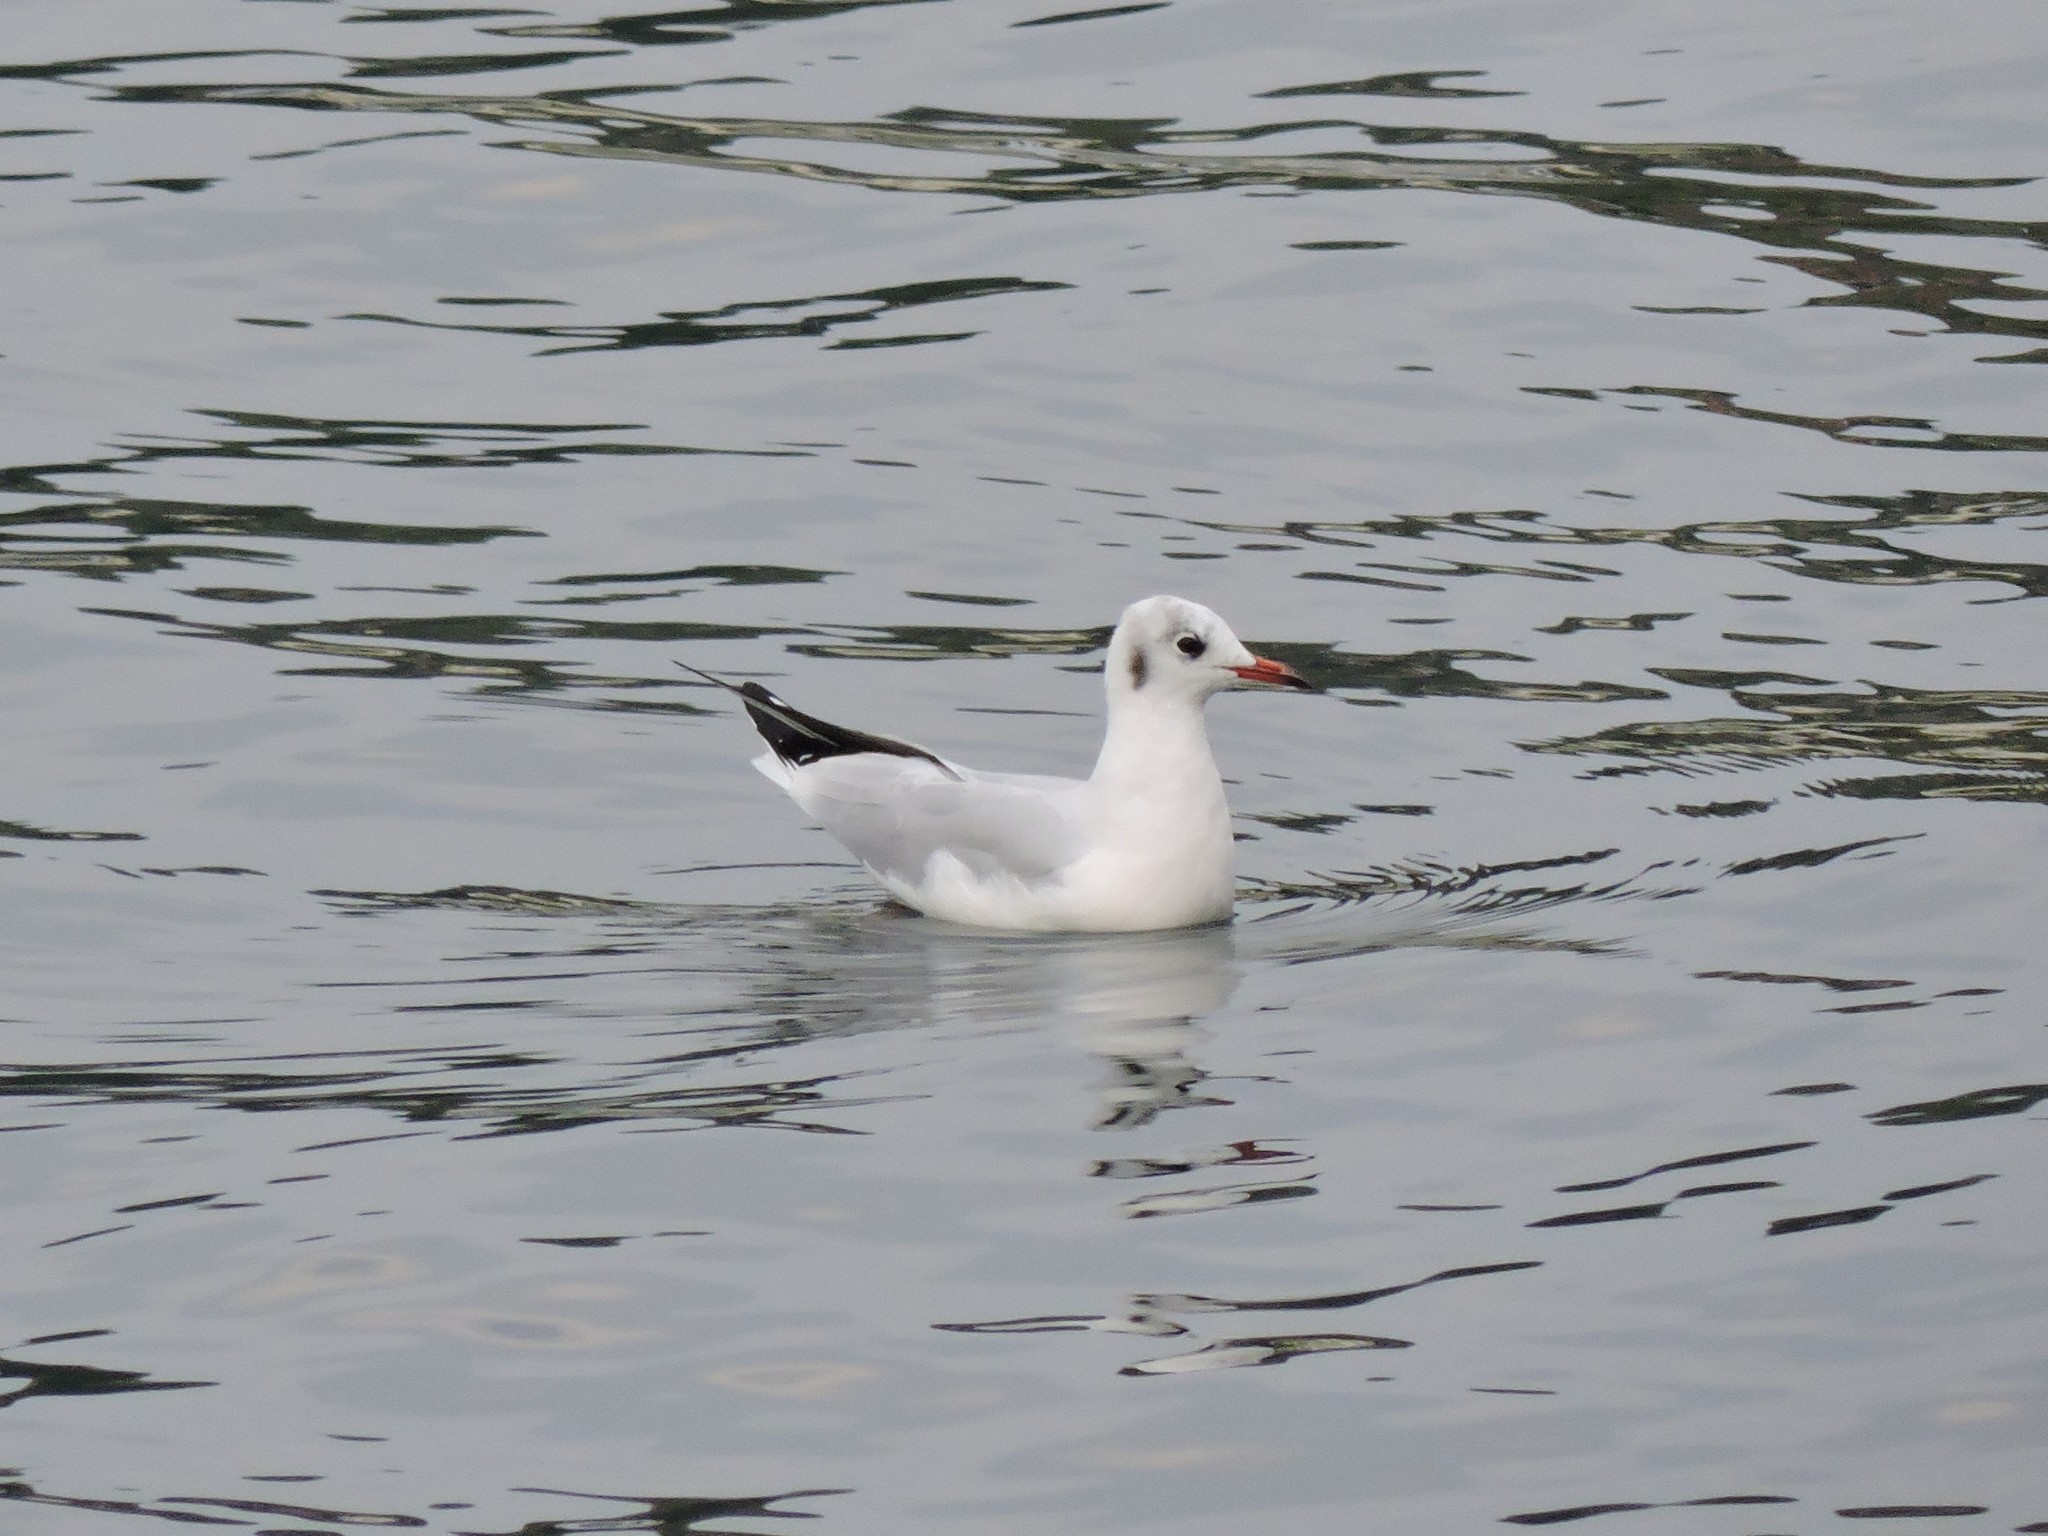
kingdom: Animalia
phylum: Chordata
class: Aves
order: Charadriiformes
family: Laridae
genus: Chroicocephalus
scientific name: Chroicocephalus ridibundus
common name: Black-headed gull
